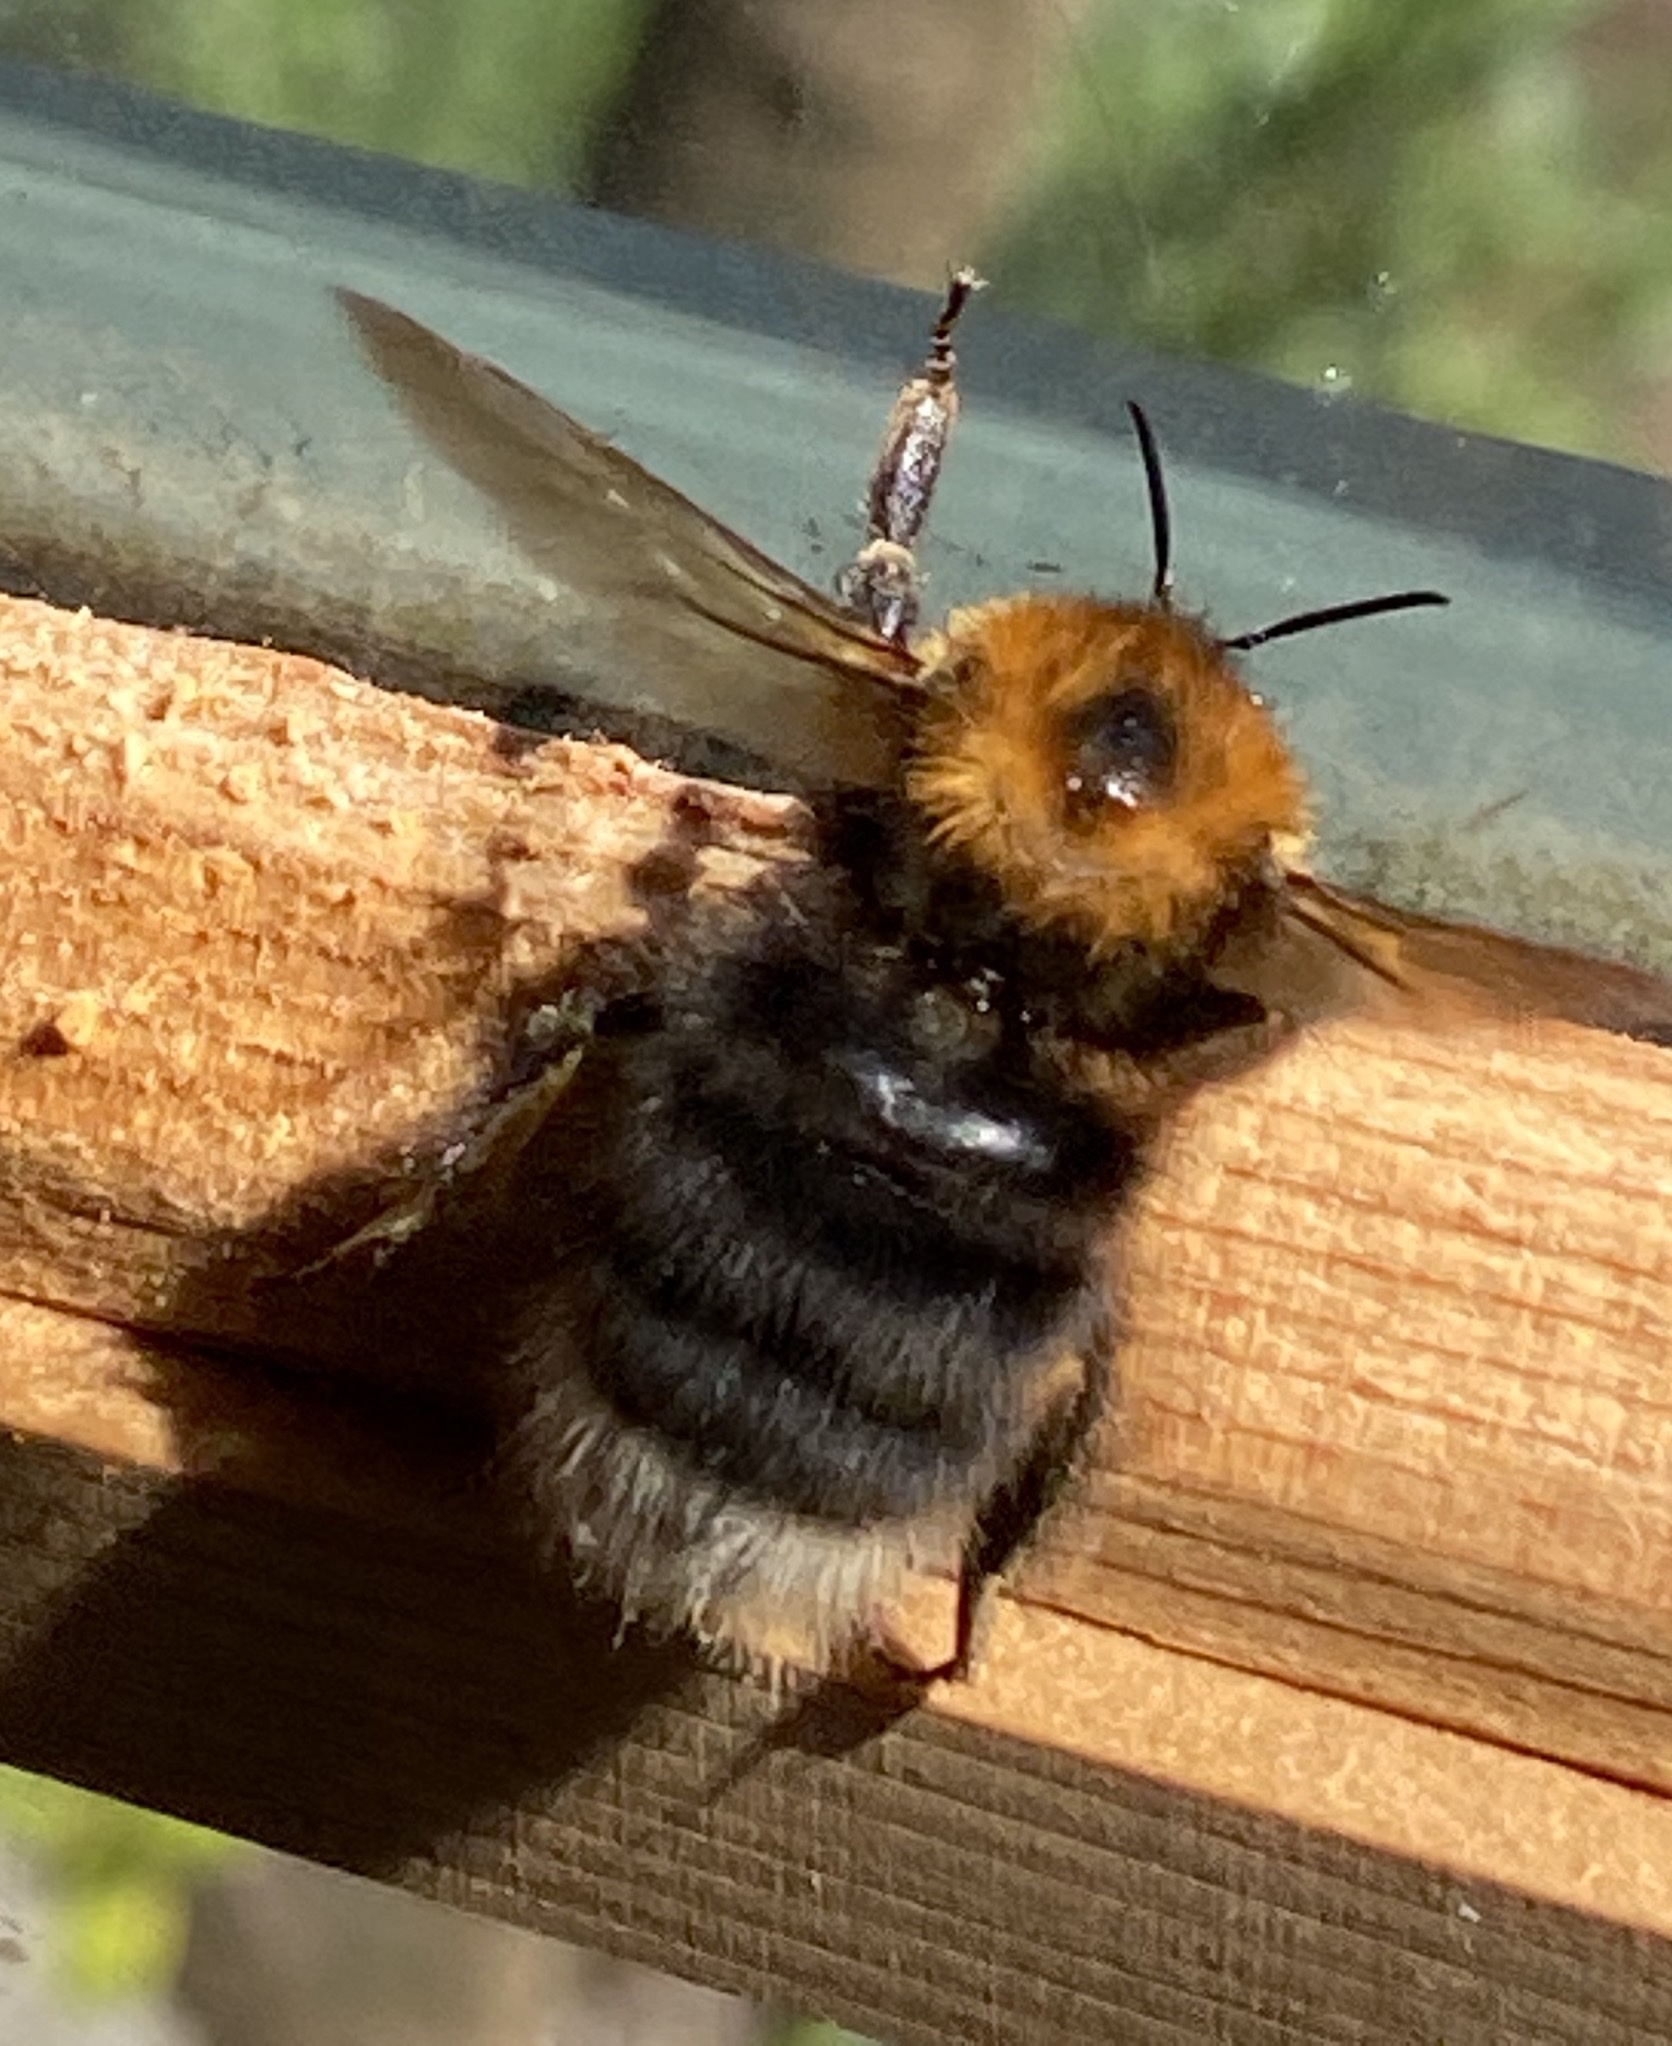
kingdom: Animalia
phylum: Arthropoda
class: Insecta
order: Hymenoptera
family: Apidae
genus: Bombus
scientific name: Bombus hypnorum
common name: New garden bumblebee
